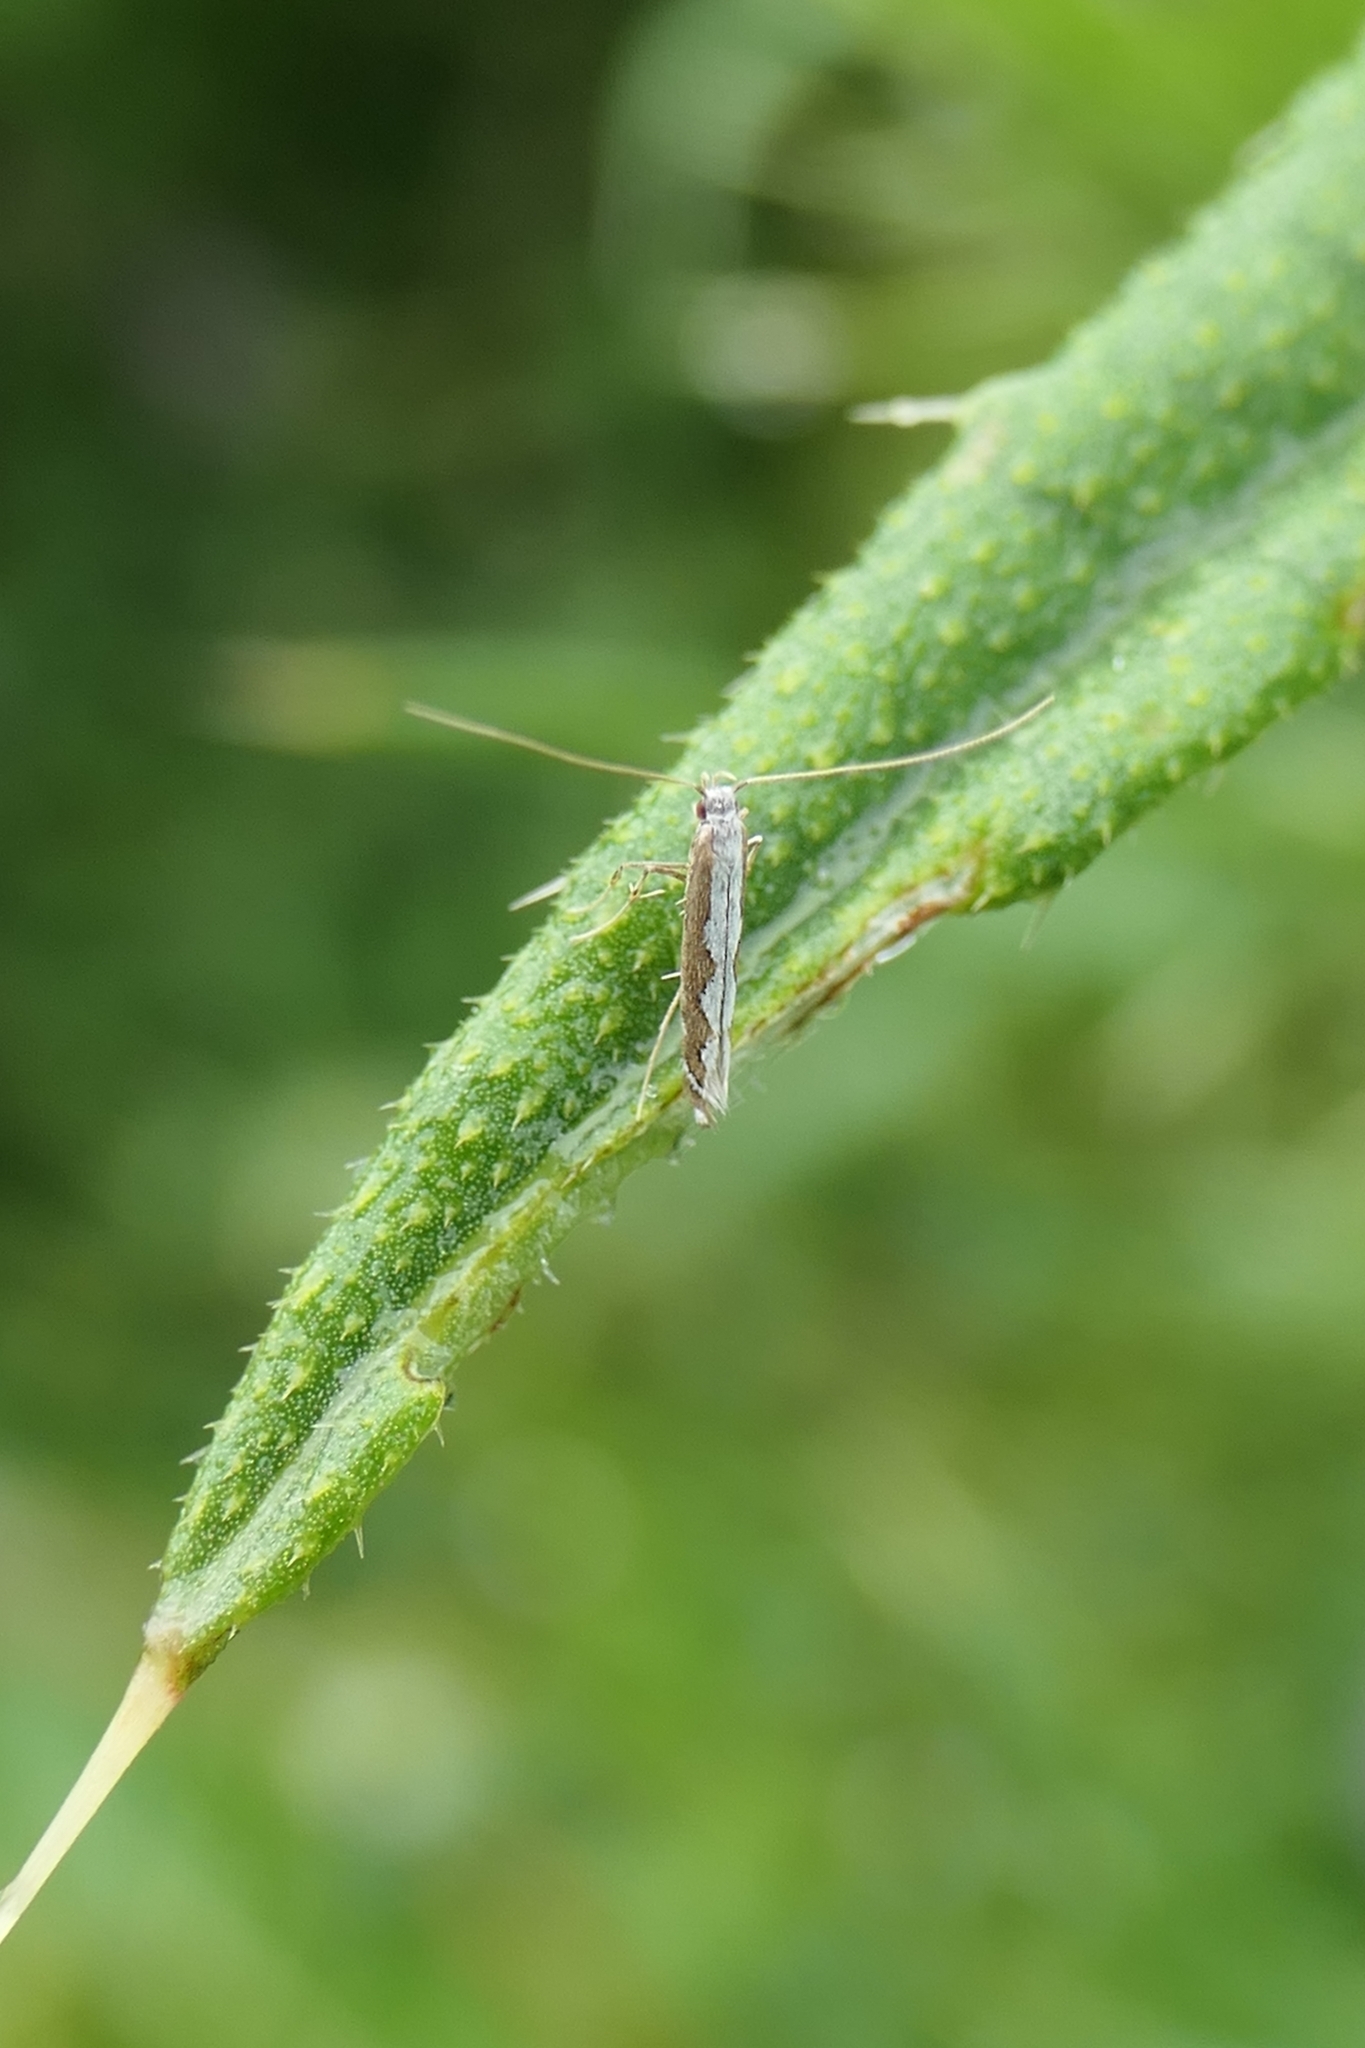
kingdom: Animalia
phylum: Arthropoda
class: Insecta
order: Lepidoptera
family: Gracillariidae
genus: Dialectica
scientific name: Dialectica scalariella
